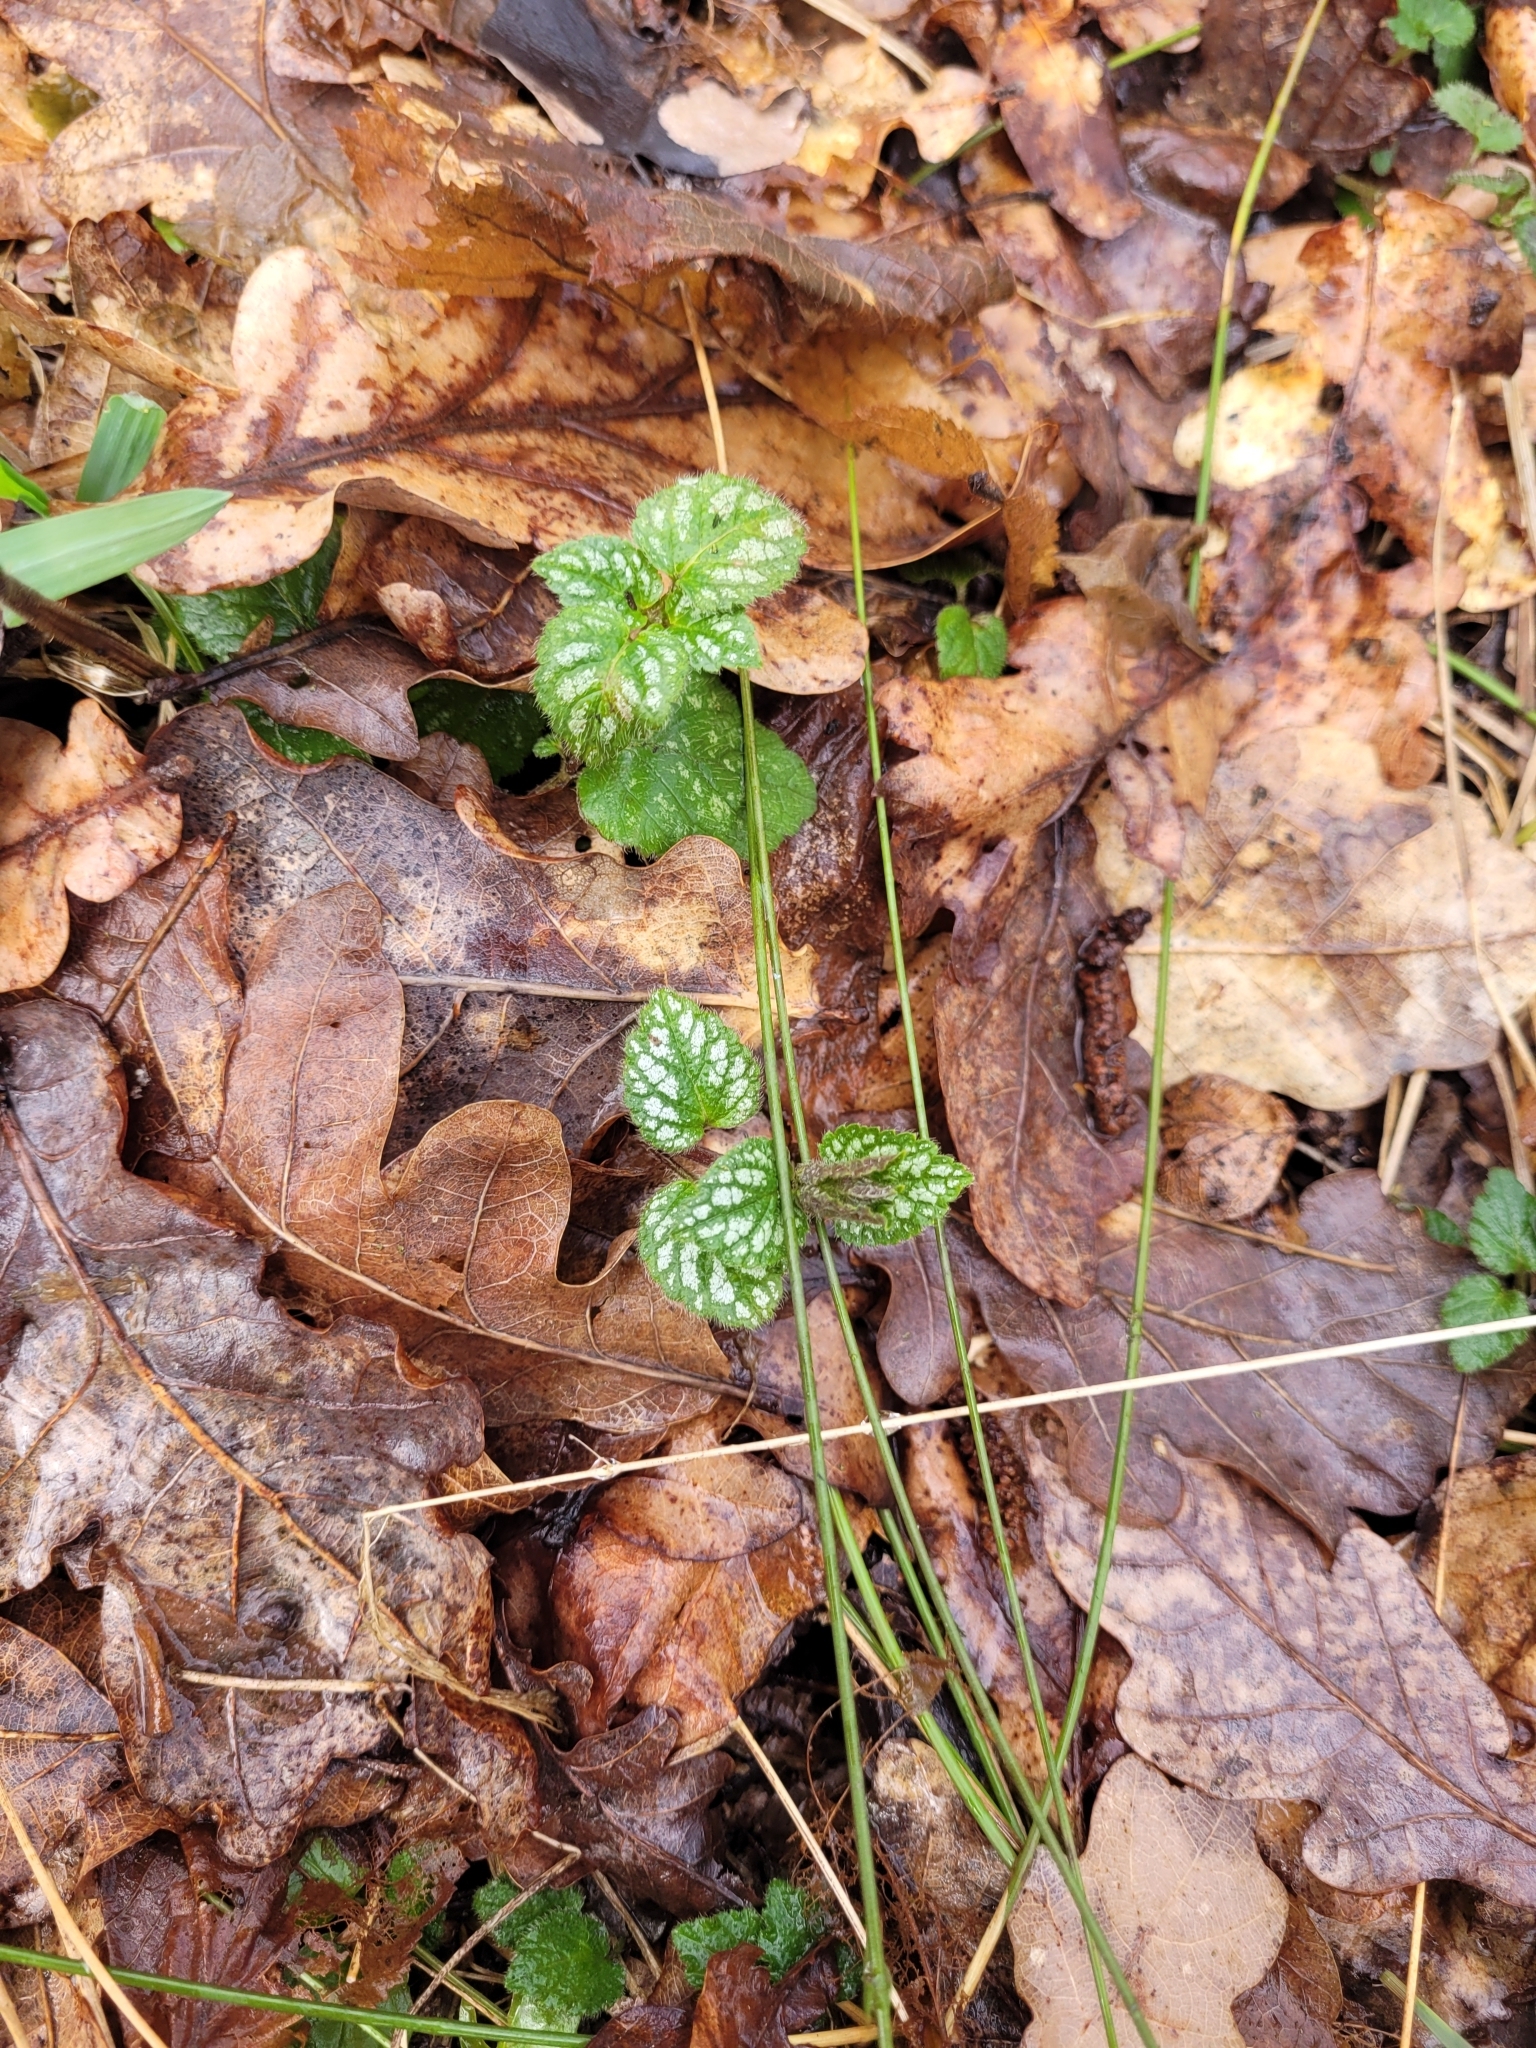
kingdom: Plantae
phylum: Tracheophyta
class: Magnoliopsida
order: Lamiales
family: Lamiaceae
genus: Lamium
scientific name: Lamium galeobdolon
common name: Yellow archangel
